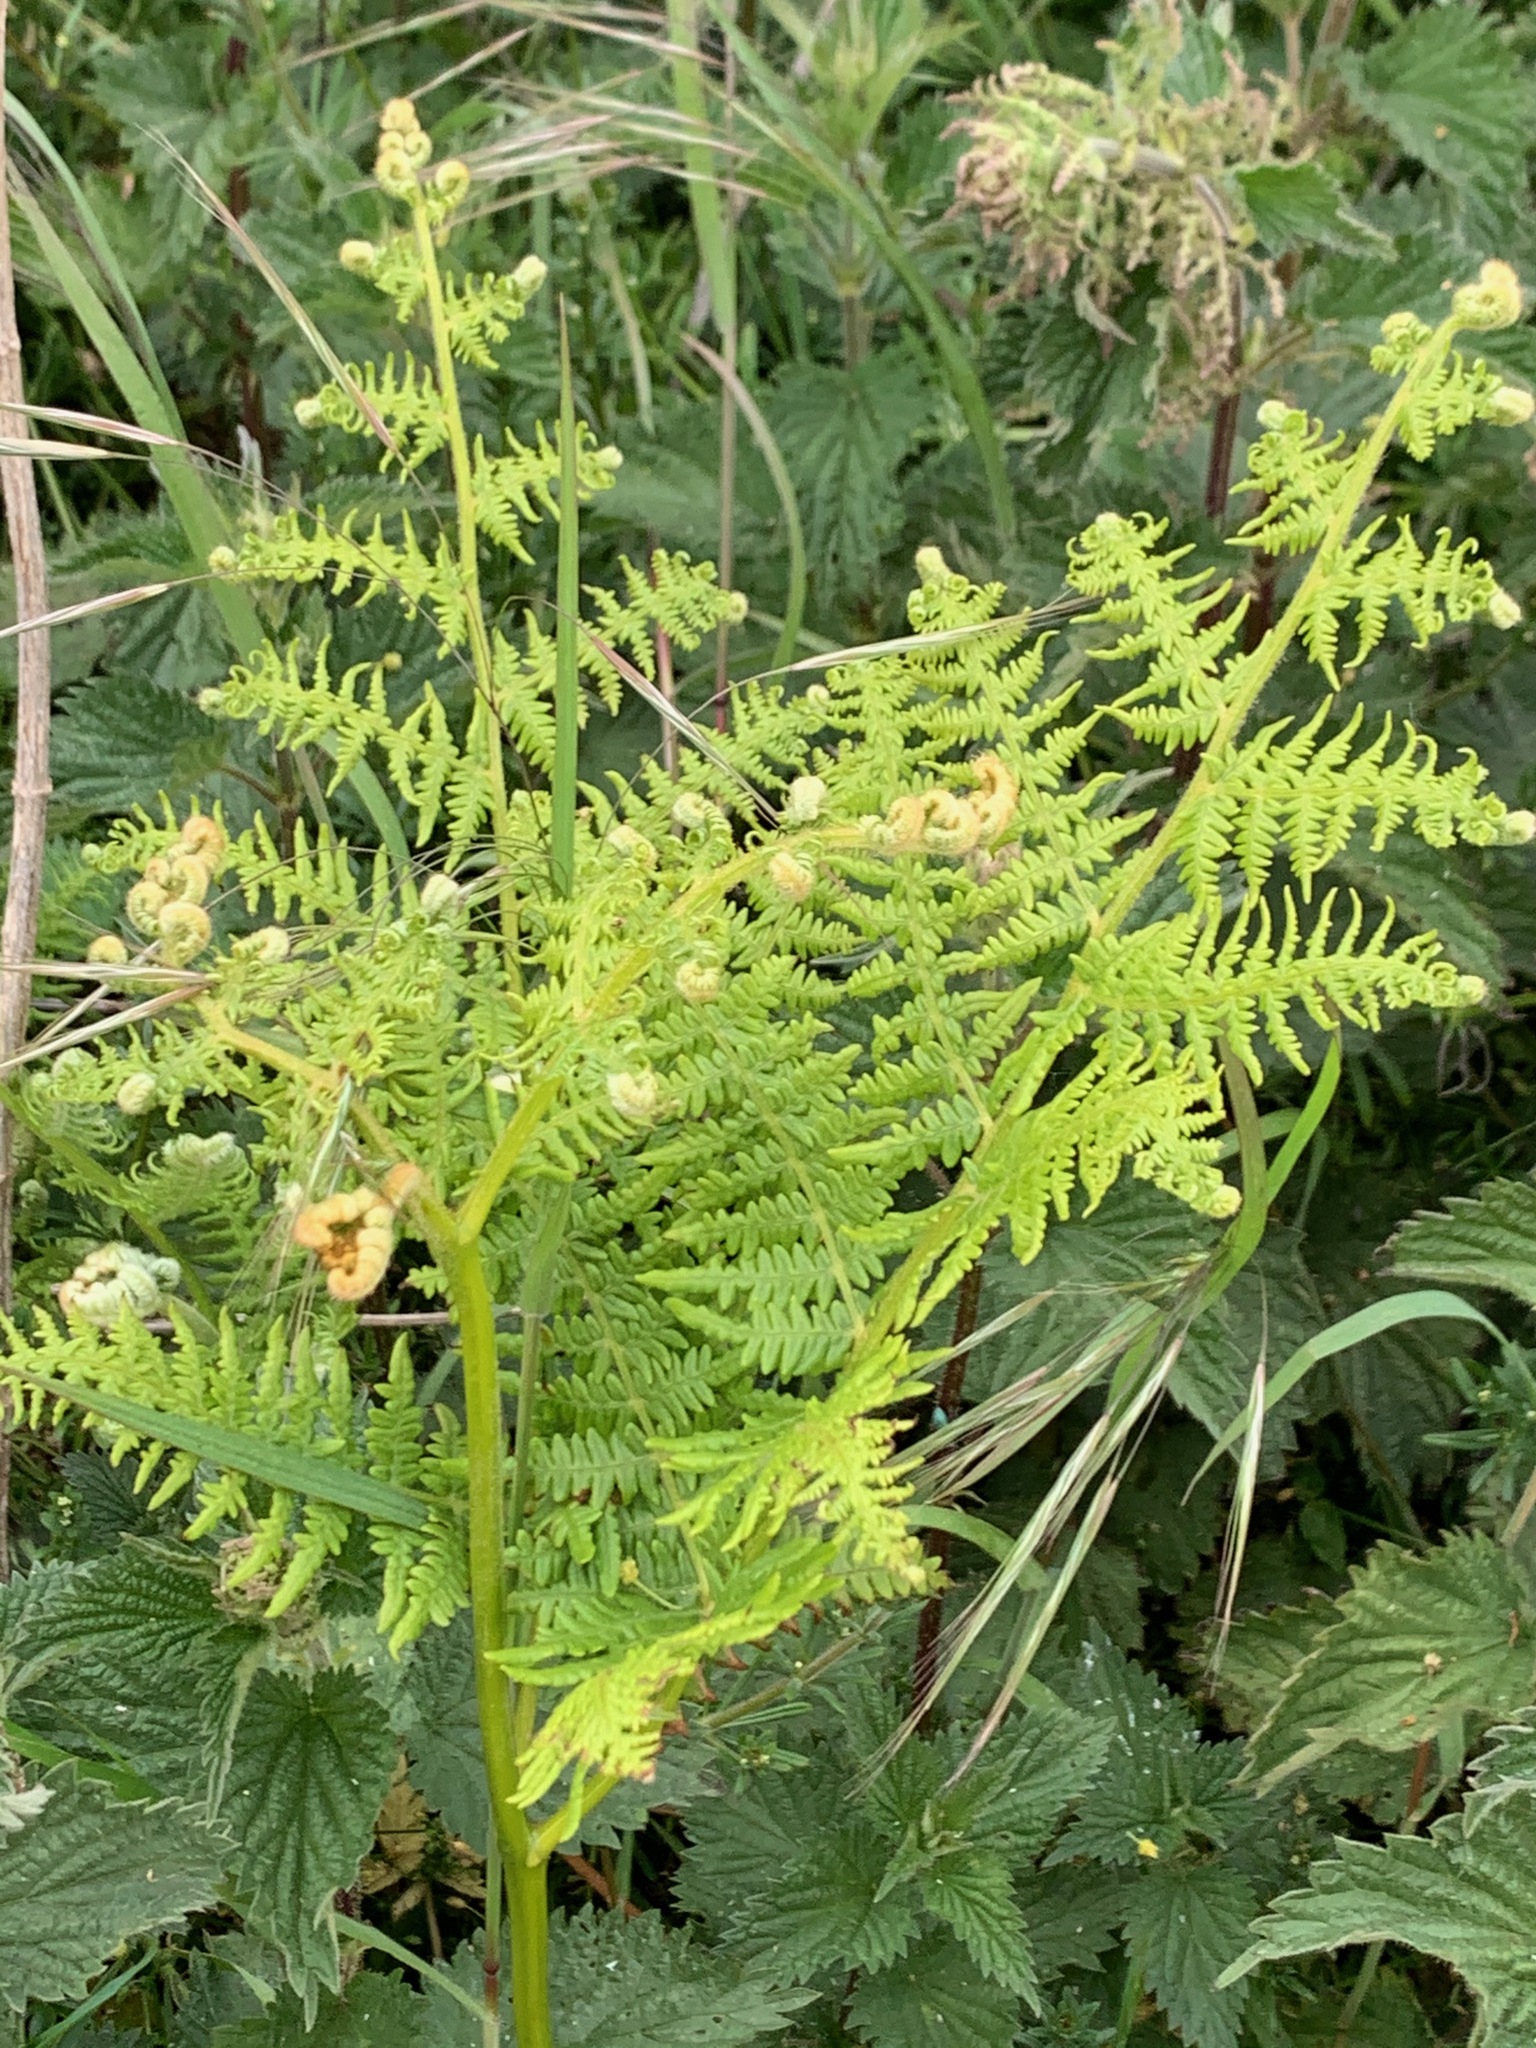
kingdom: Plantae
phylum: Tracheophyta
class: Polypodiopsida
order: Polypodiales
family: Dennstaedtiaceae
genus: Pteridium
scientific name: Pteridium aquilinum
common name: Bracken
